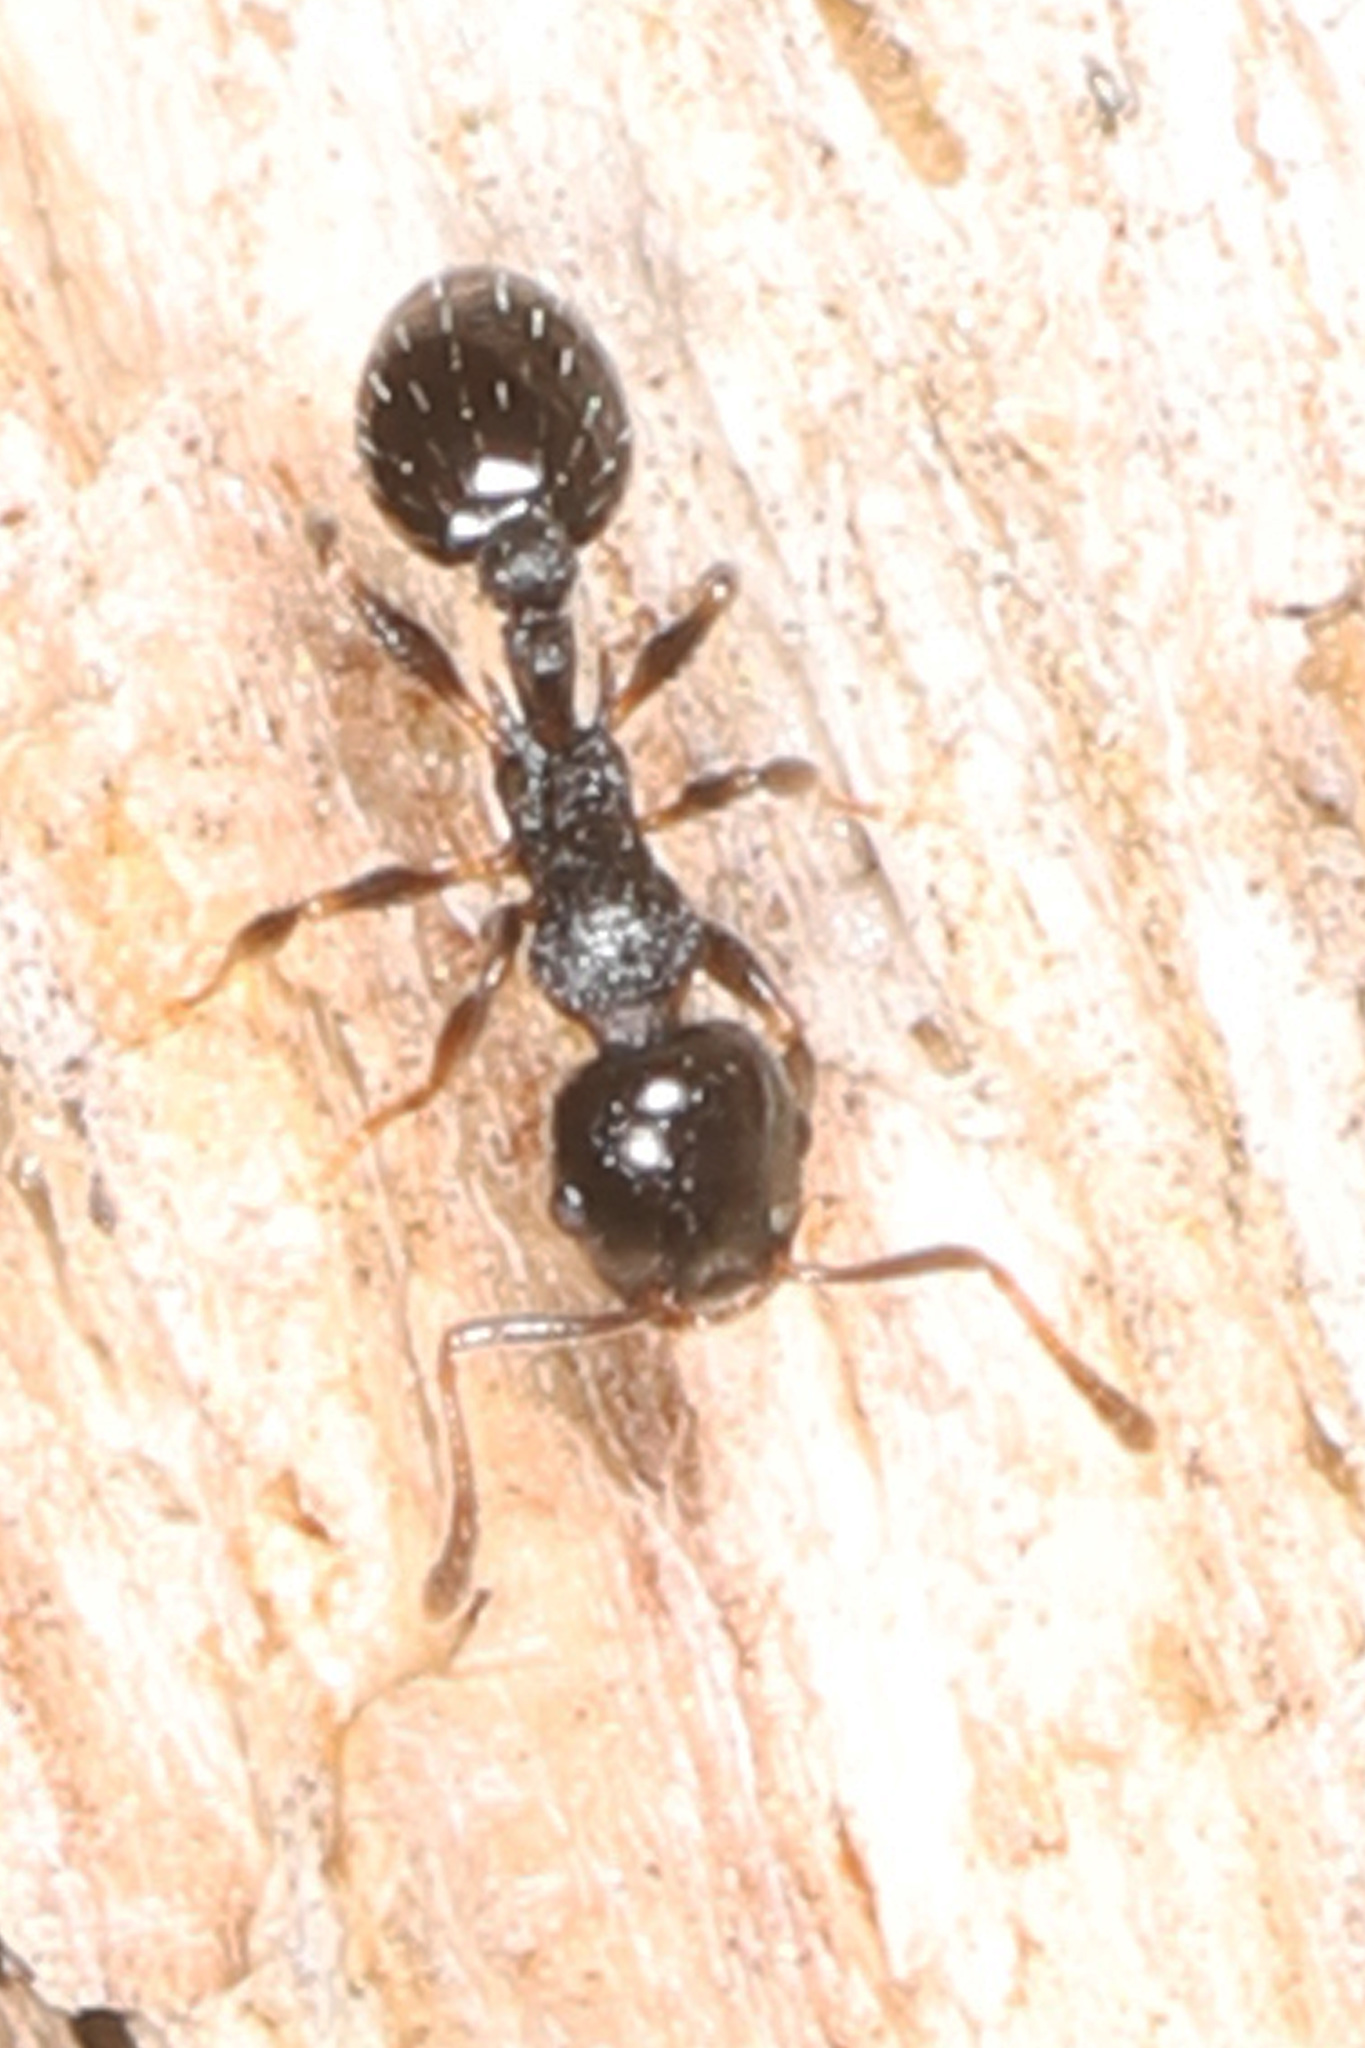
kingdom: Animalia
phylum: Arthropoda
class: Insecta
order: Hymenoptera
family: Formicidae
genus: Temnothorax
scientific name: Temnothorax longispinosus
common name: Long-spined acorn ant
